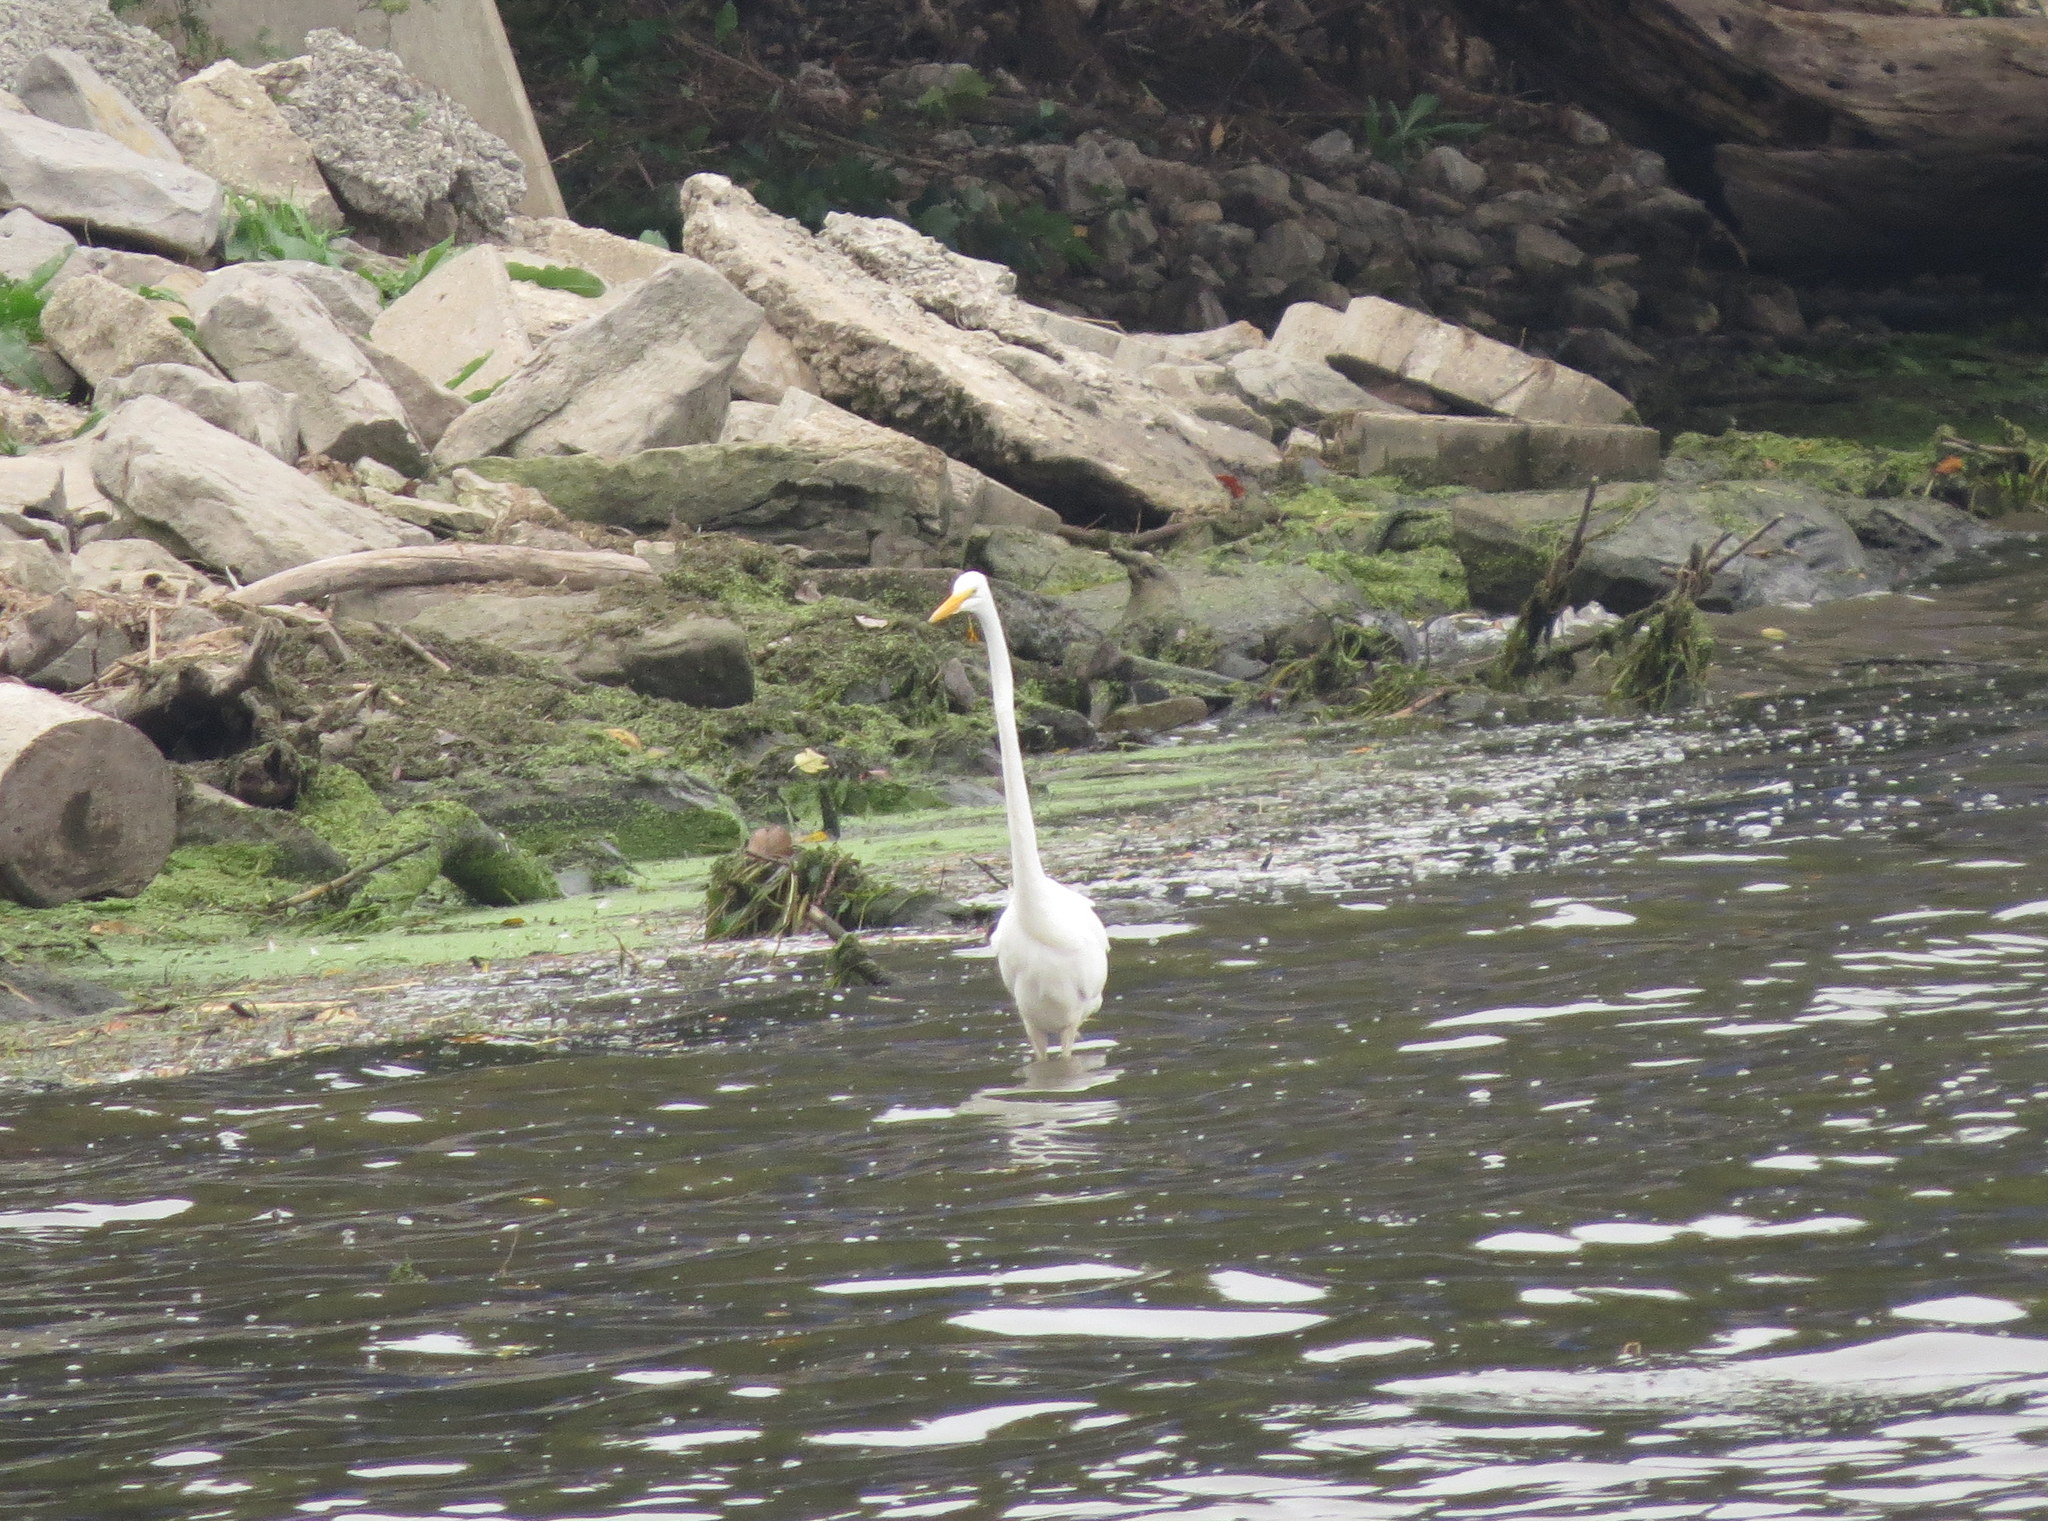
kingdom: Animalia
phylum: Chordata
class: Aves
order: Pelecaniformes
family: Ardeidae
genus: Ardea
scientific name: Ardea alba
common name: Great egret
